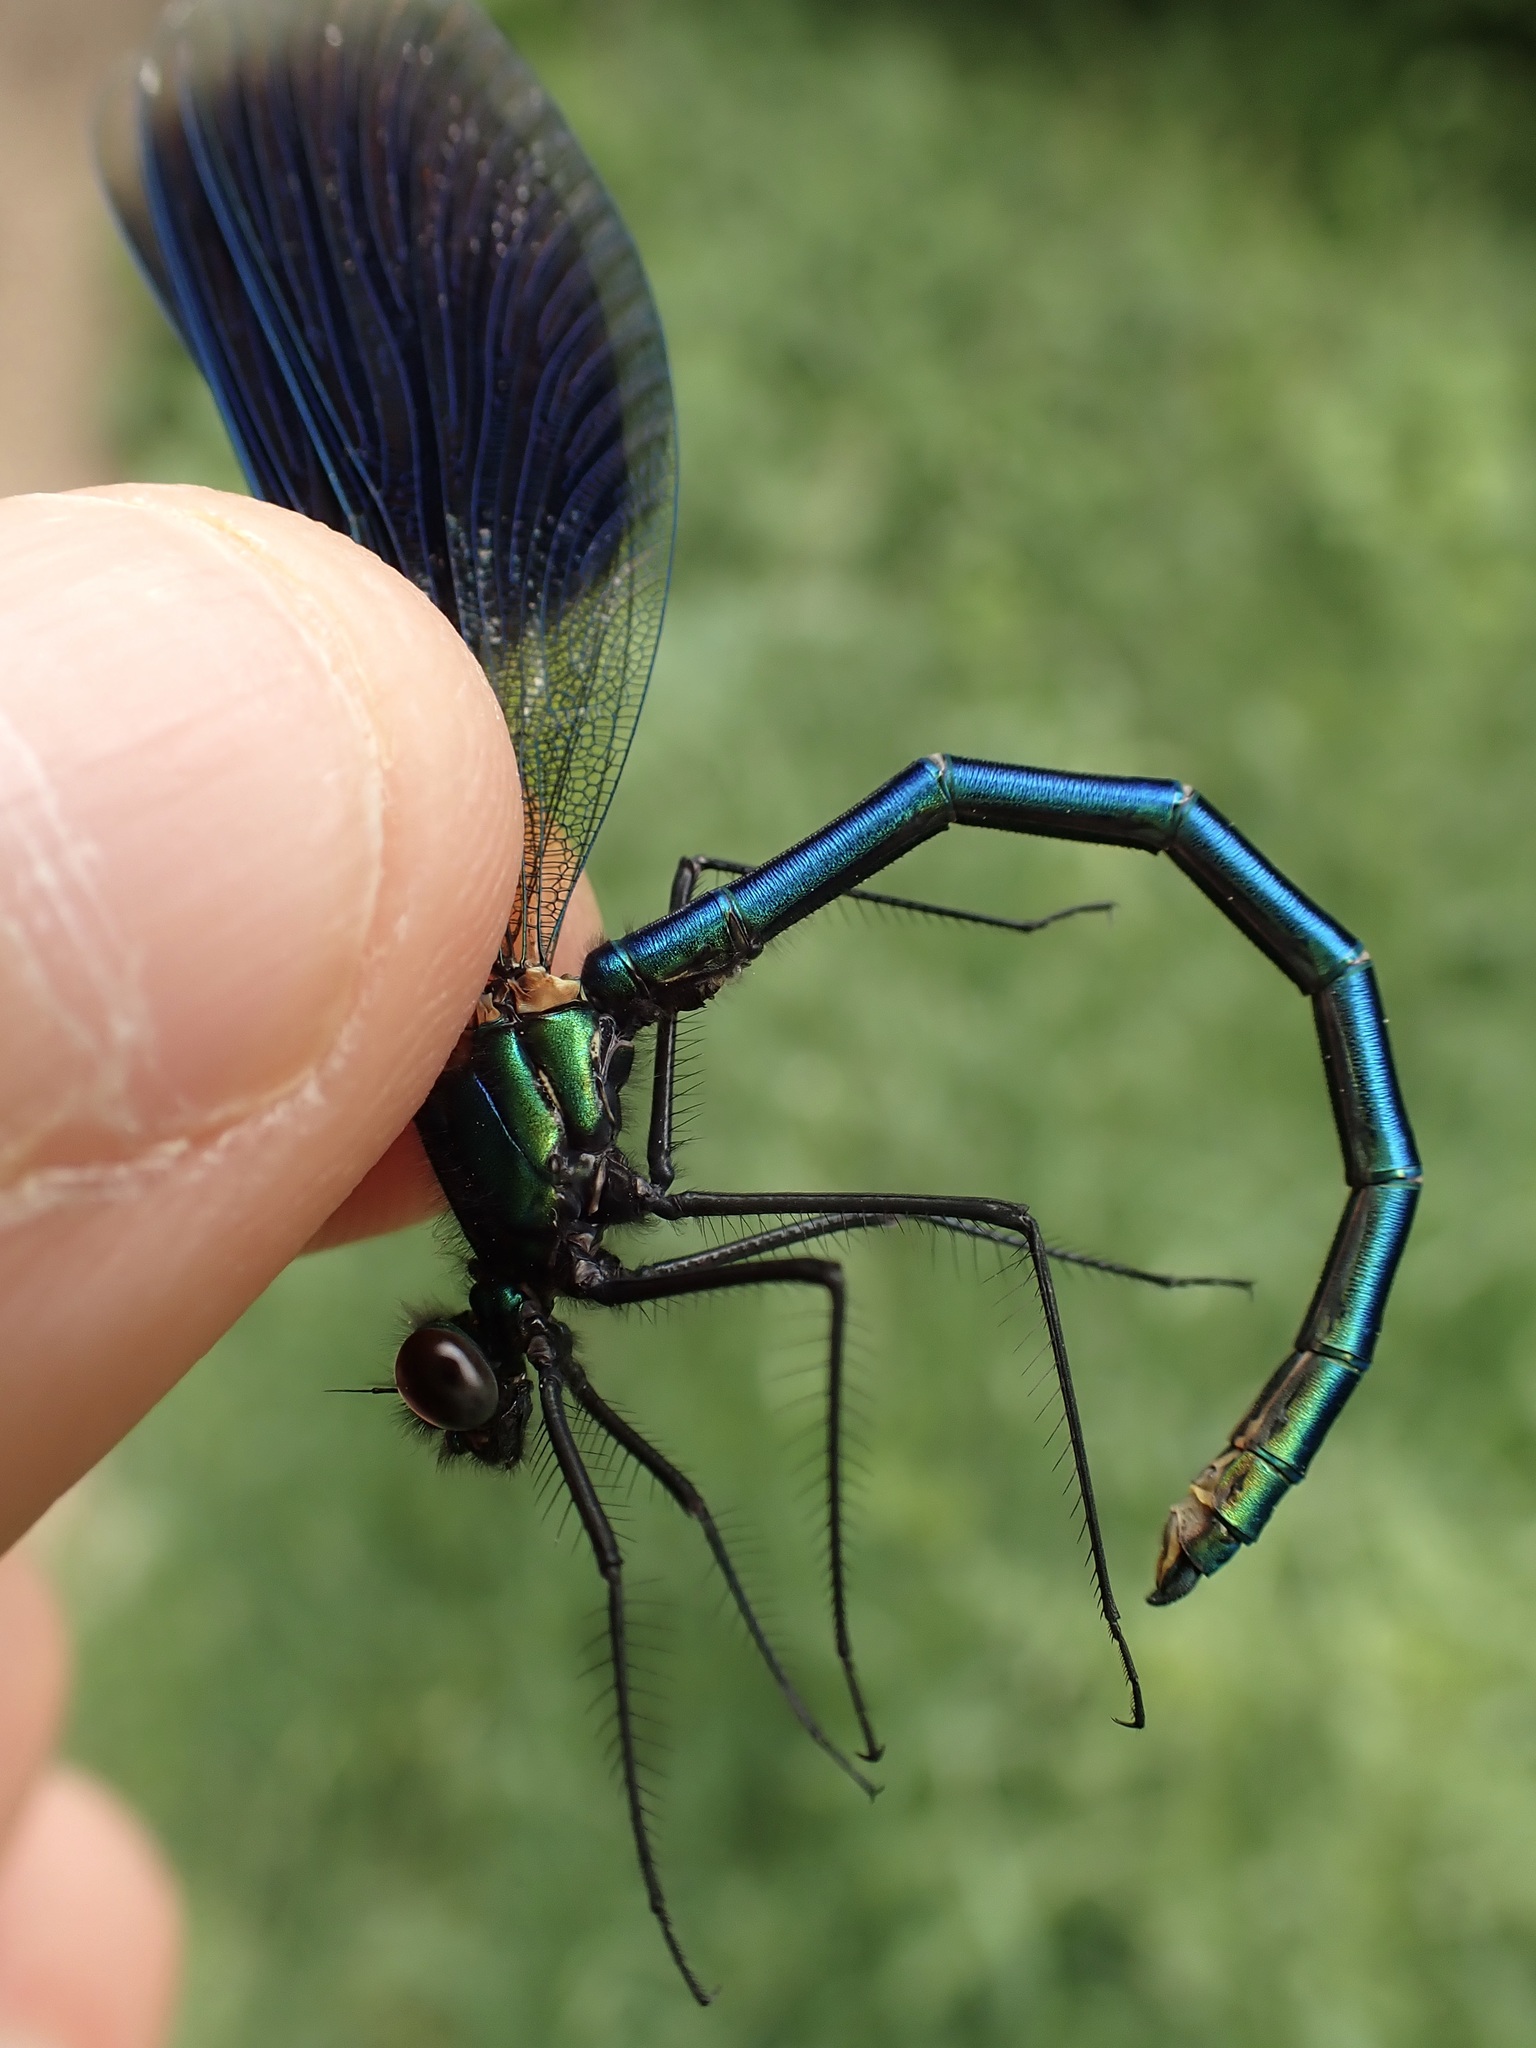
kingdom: Animalia
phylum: Arthropoda
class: Insecta
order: Odonata
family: Calopterygidae
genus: Calopteryx
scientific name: Calopteryx splendens
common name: Banded demoiselle
